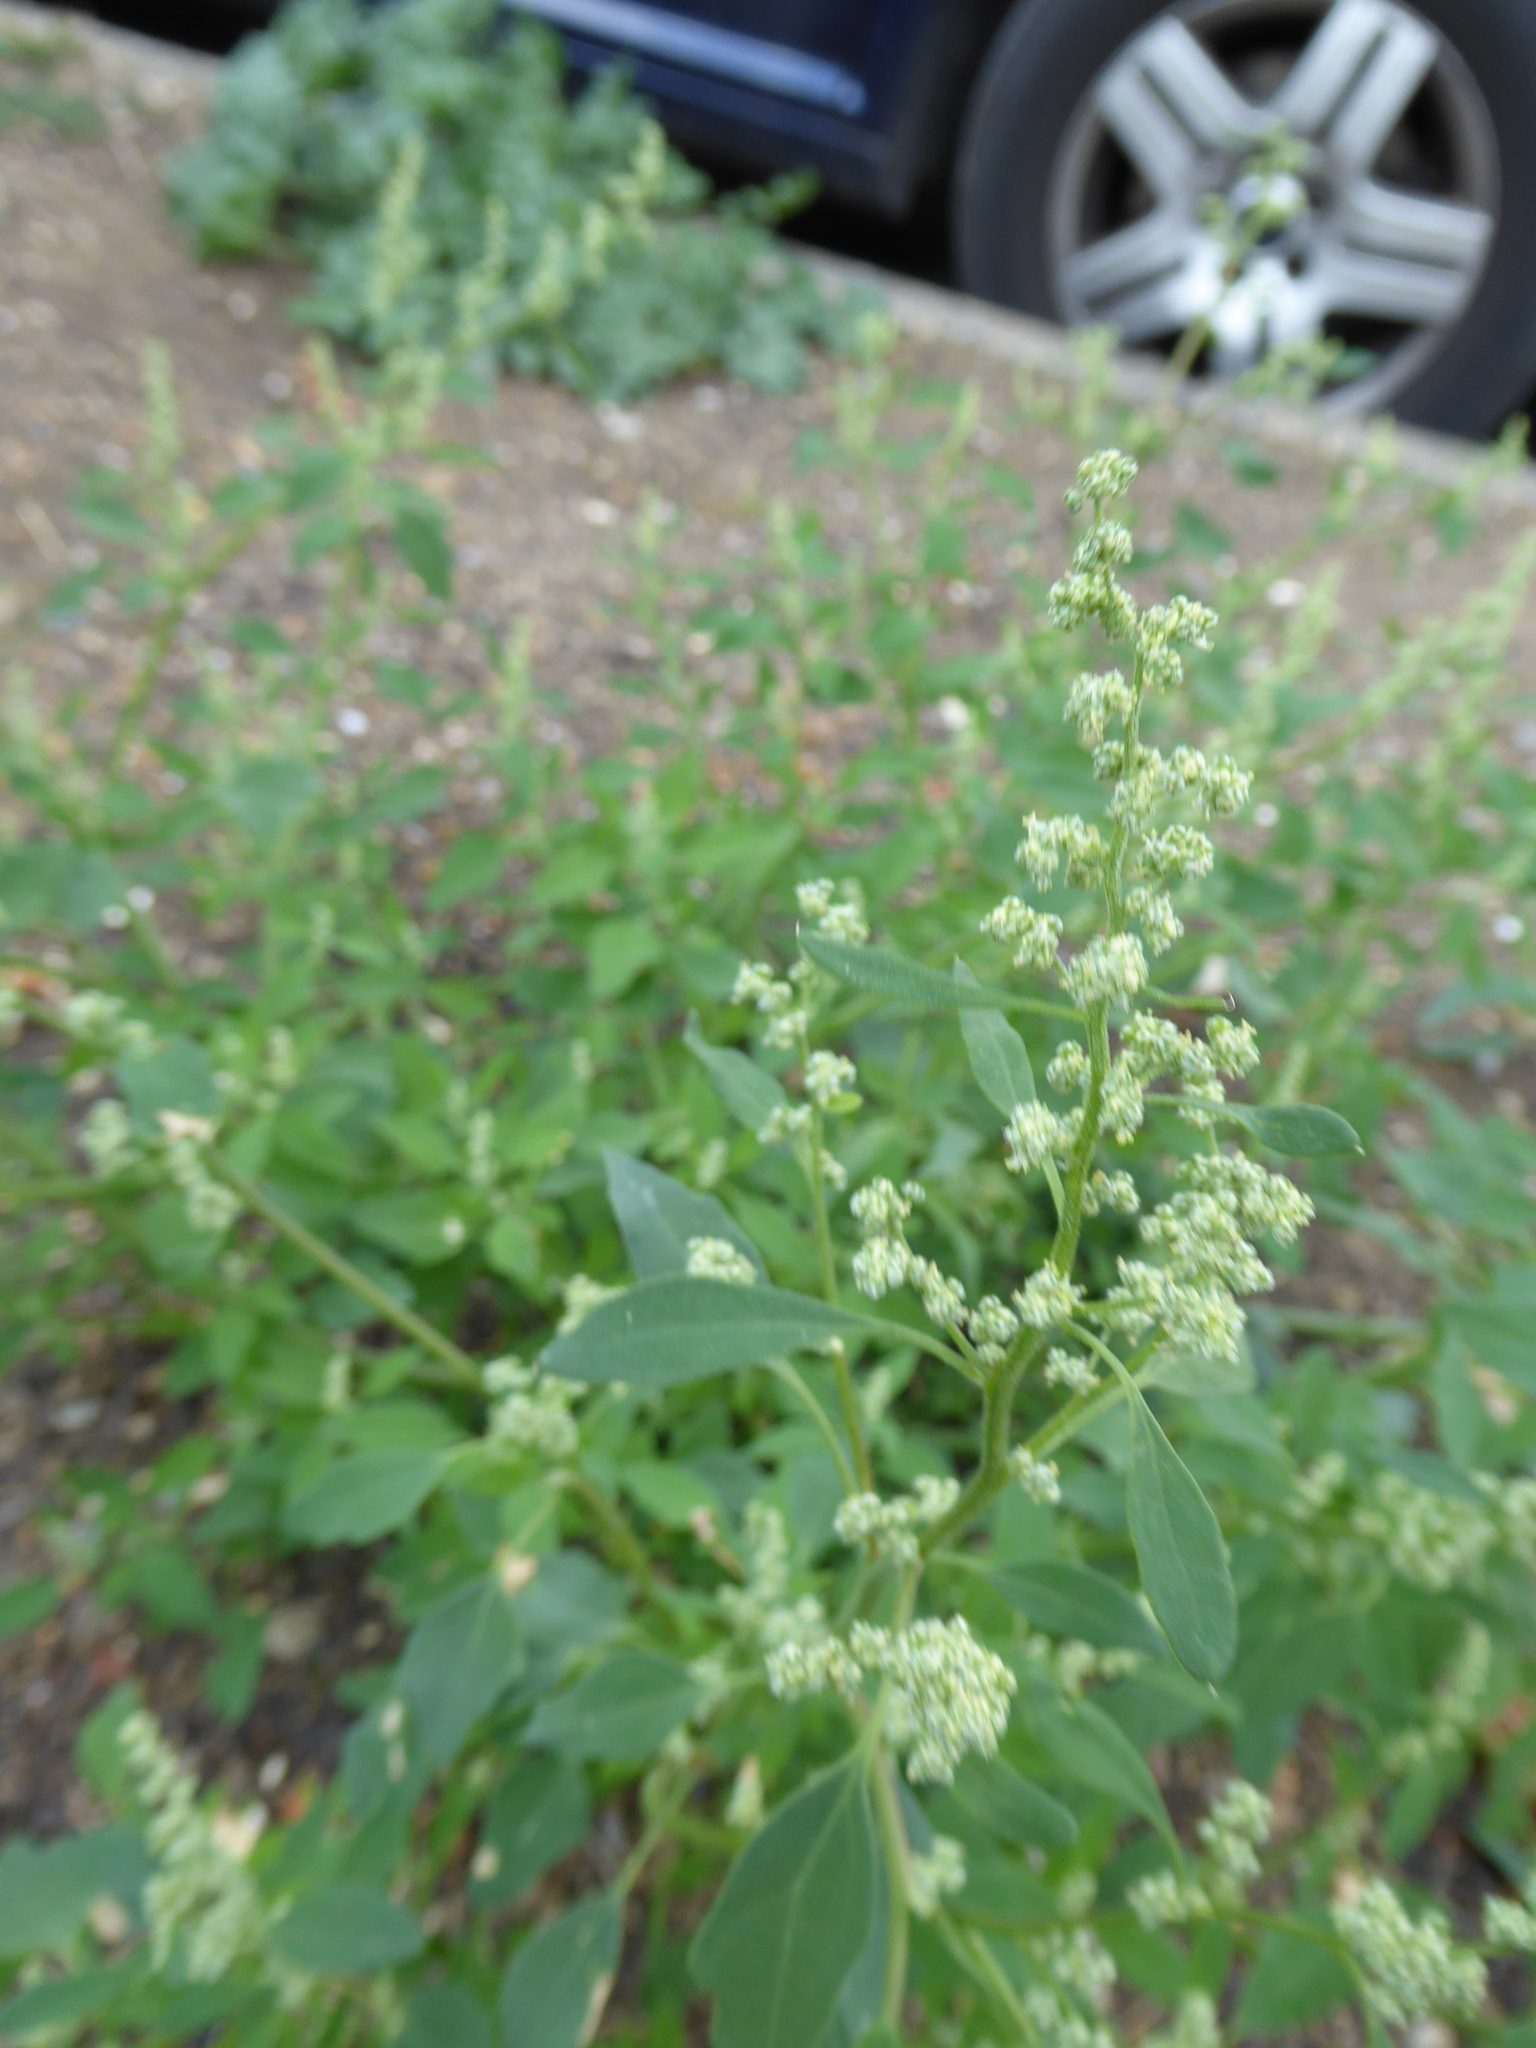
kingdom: Plantae
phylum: Tracheophyta
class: Magnoliopsida
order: Caryophyllales
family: Amaranthaceae
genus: Chenopodium
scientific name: Chenopodium album
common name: Fat-hen
